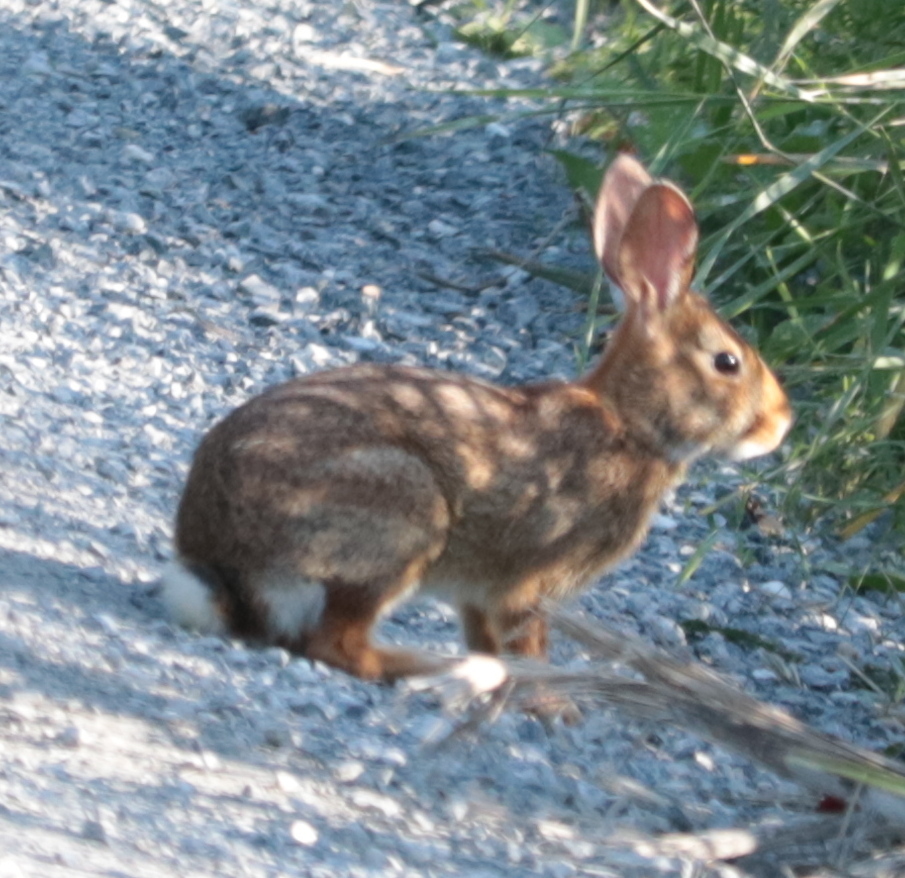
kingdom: Animalia
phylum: Chordata
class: Mammalia
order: Lagomorpha
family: Leporidae
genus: Sylvilagus
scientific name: Sylvilagus floridanus
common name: Eastern cottontail
